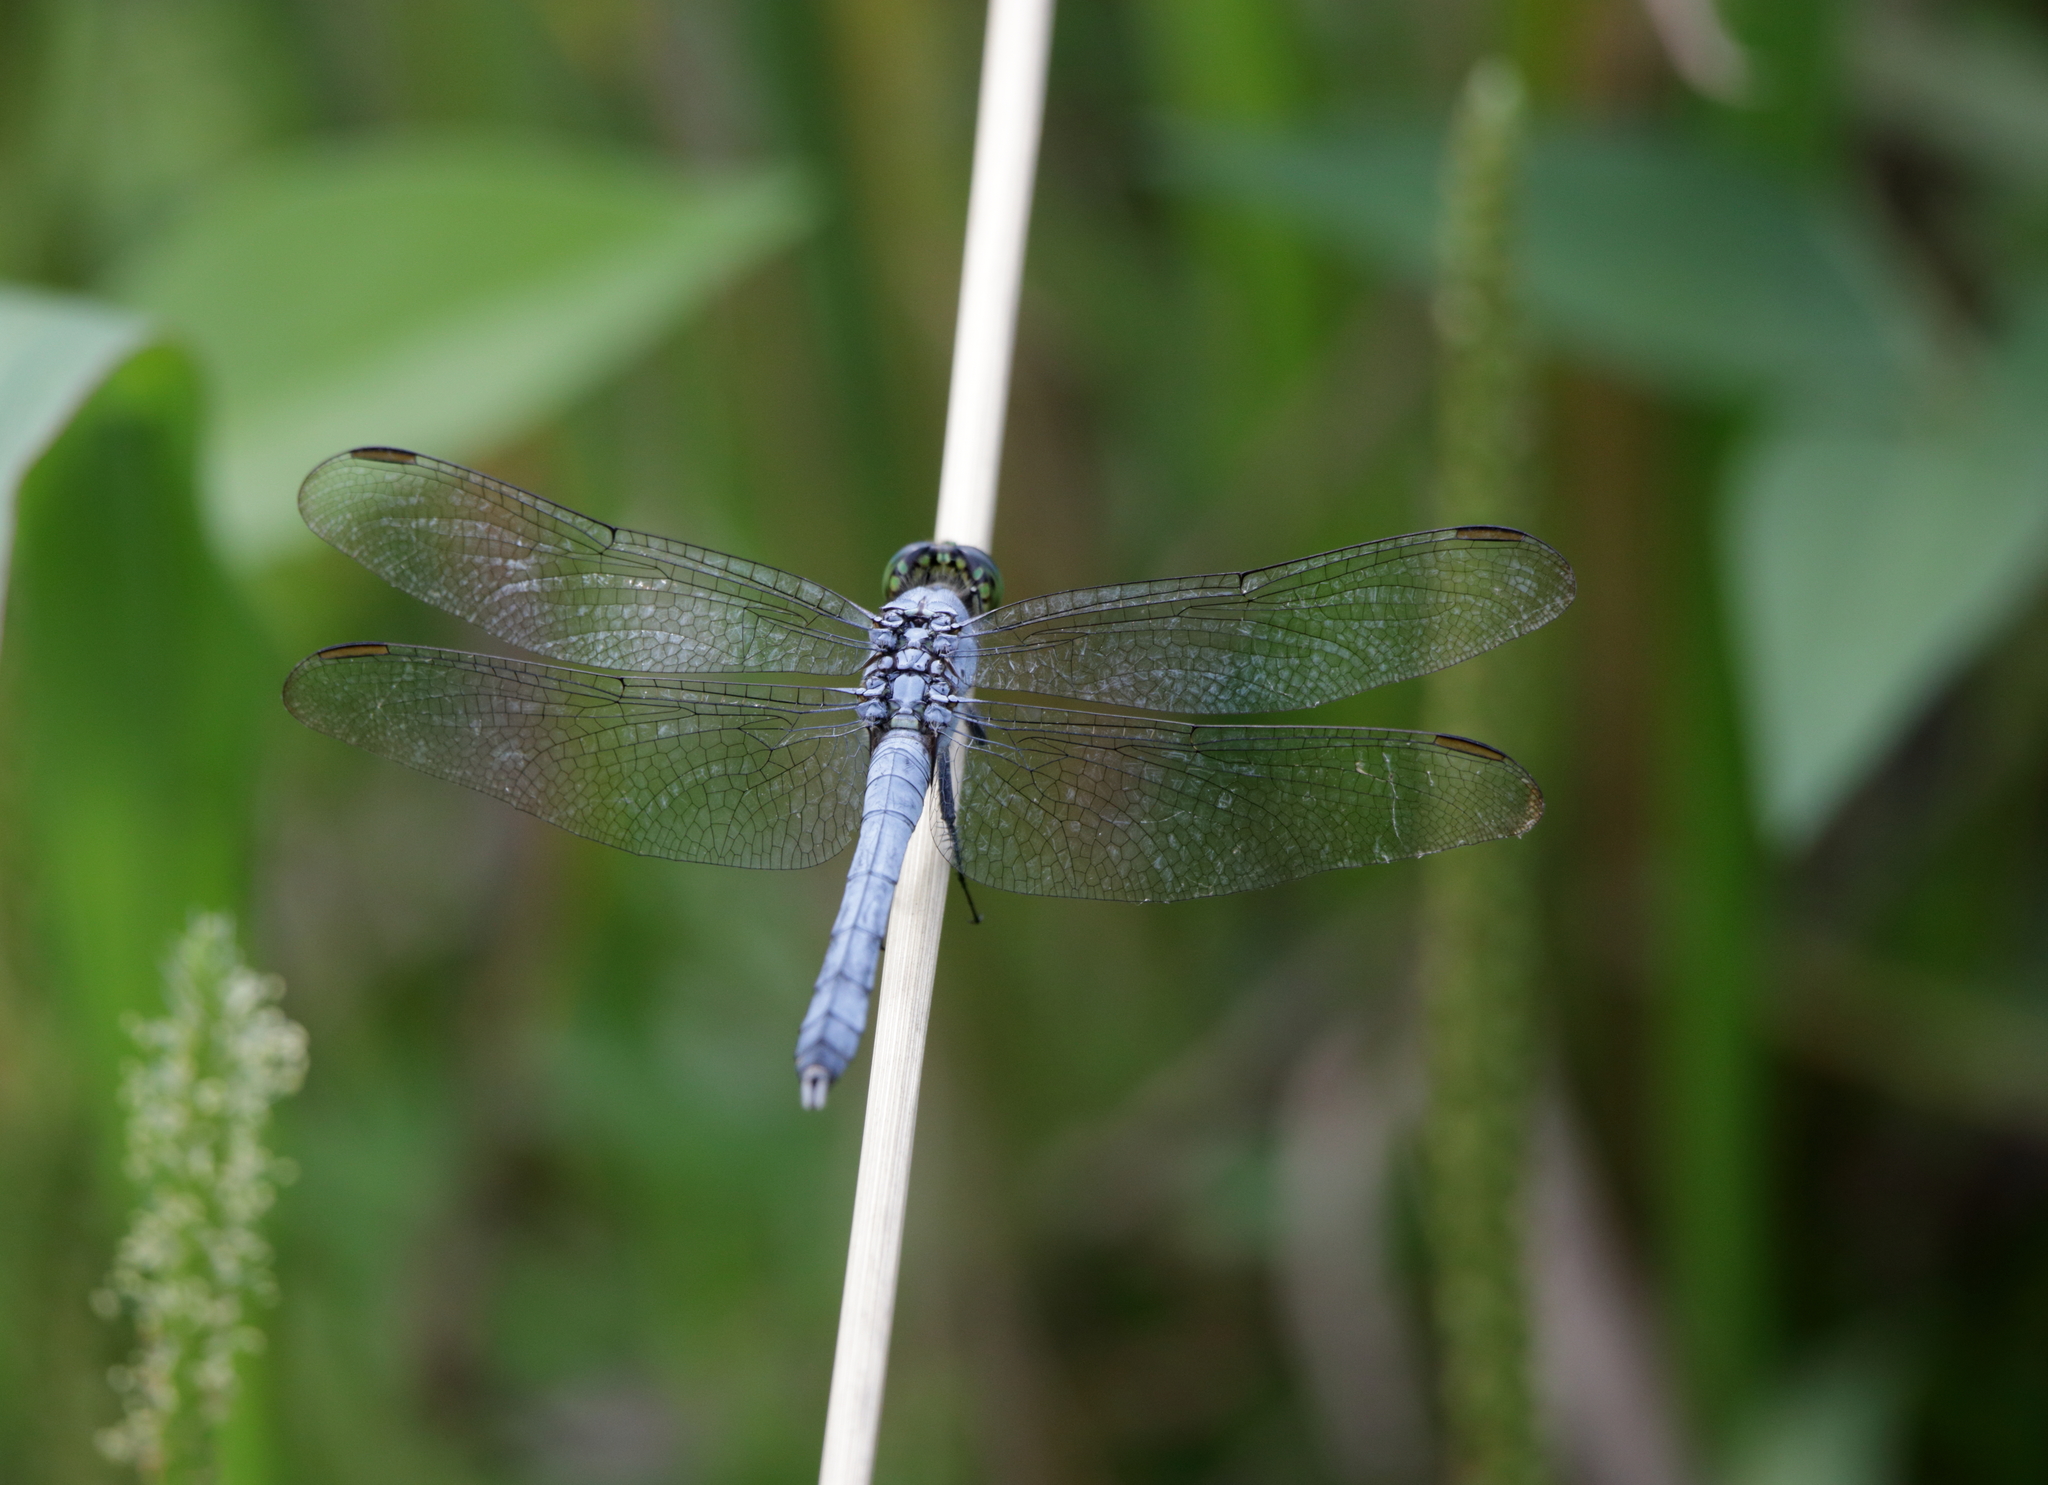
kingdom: Animalia
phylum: Arthropoda
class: Insecta
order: Odonata
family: Libellulidae
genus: Erythemis
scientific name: Erythemis simplicicollis
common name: Eastern pondhawk
